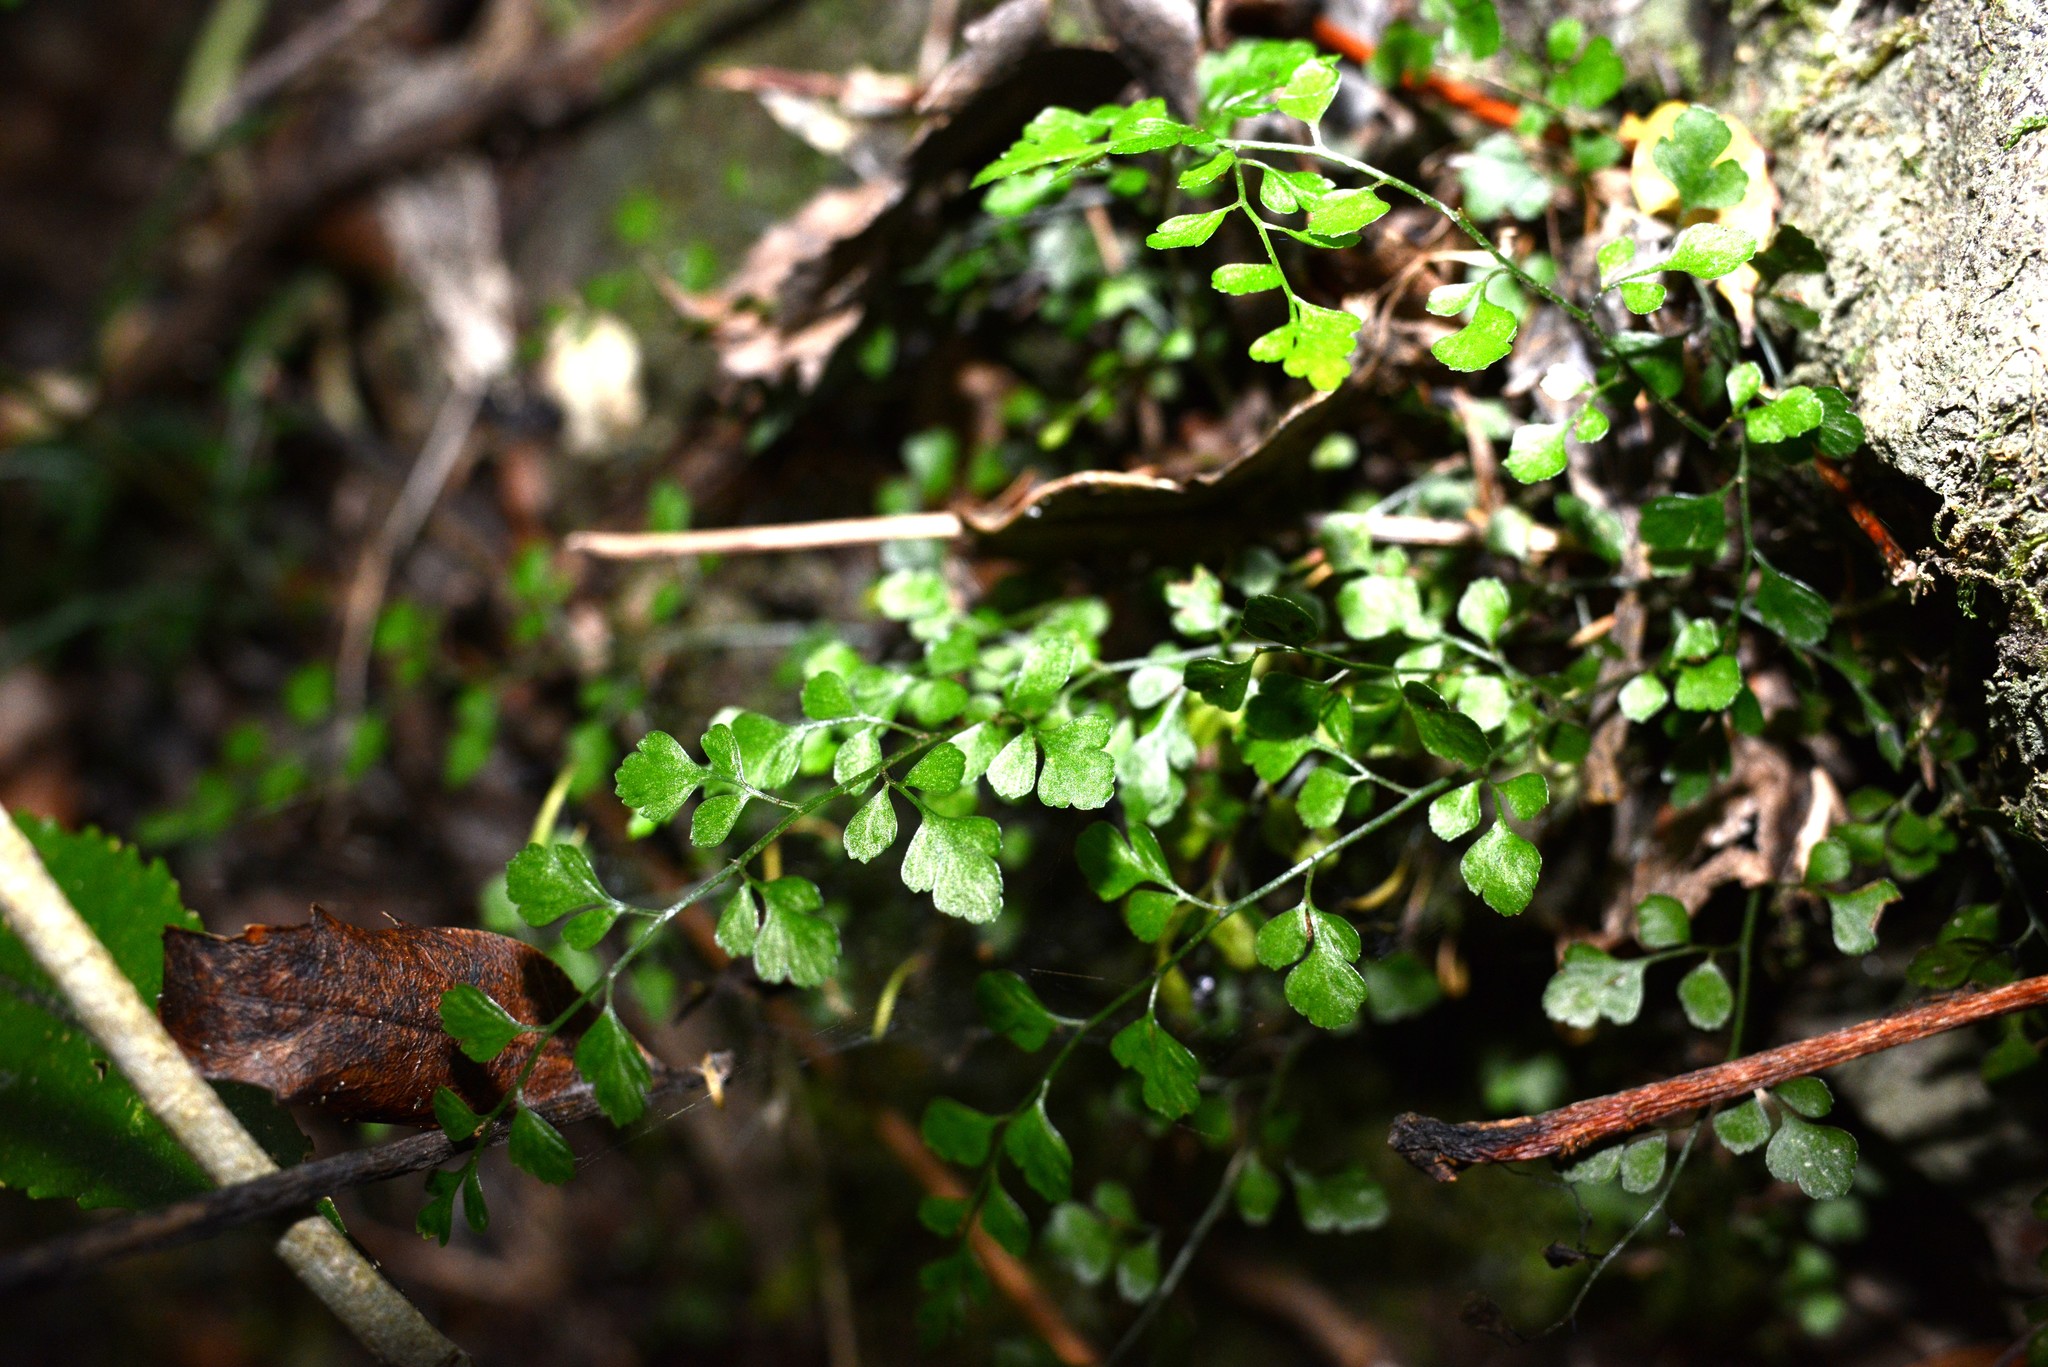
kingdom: Plantae
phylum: Tracheophyta
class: Polypodiopsida
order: Polypodiales
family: Aspleniaceae
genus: Asplenium
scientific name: Asplenium hookerianum
